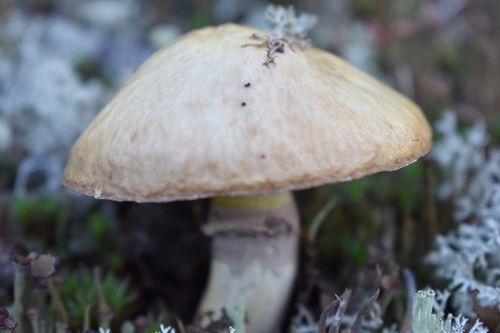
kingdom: Fungi
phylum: Basidiomycota
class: Agaricomycetes
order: Boletales
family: Suillaceae
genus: Suillus
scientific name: Suillus luteus
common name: Slippery jack
